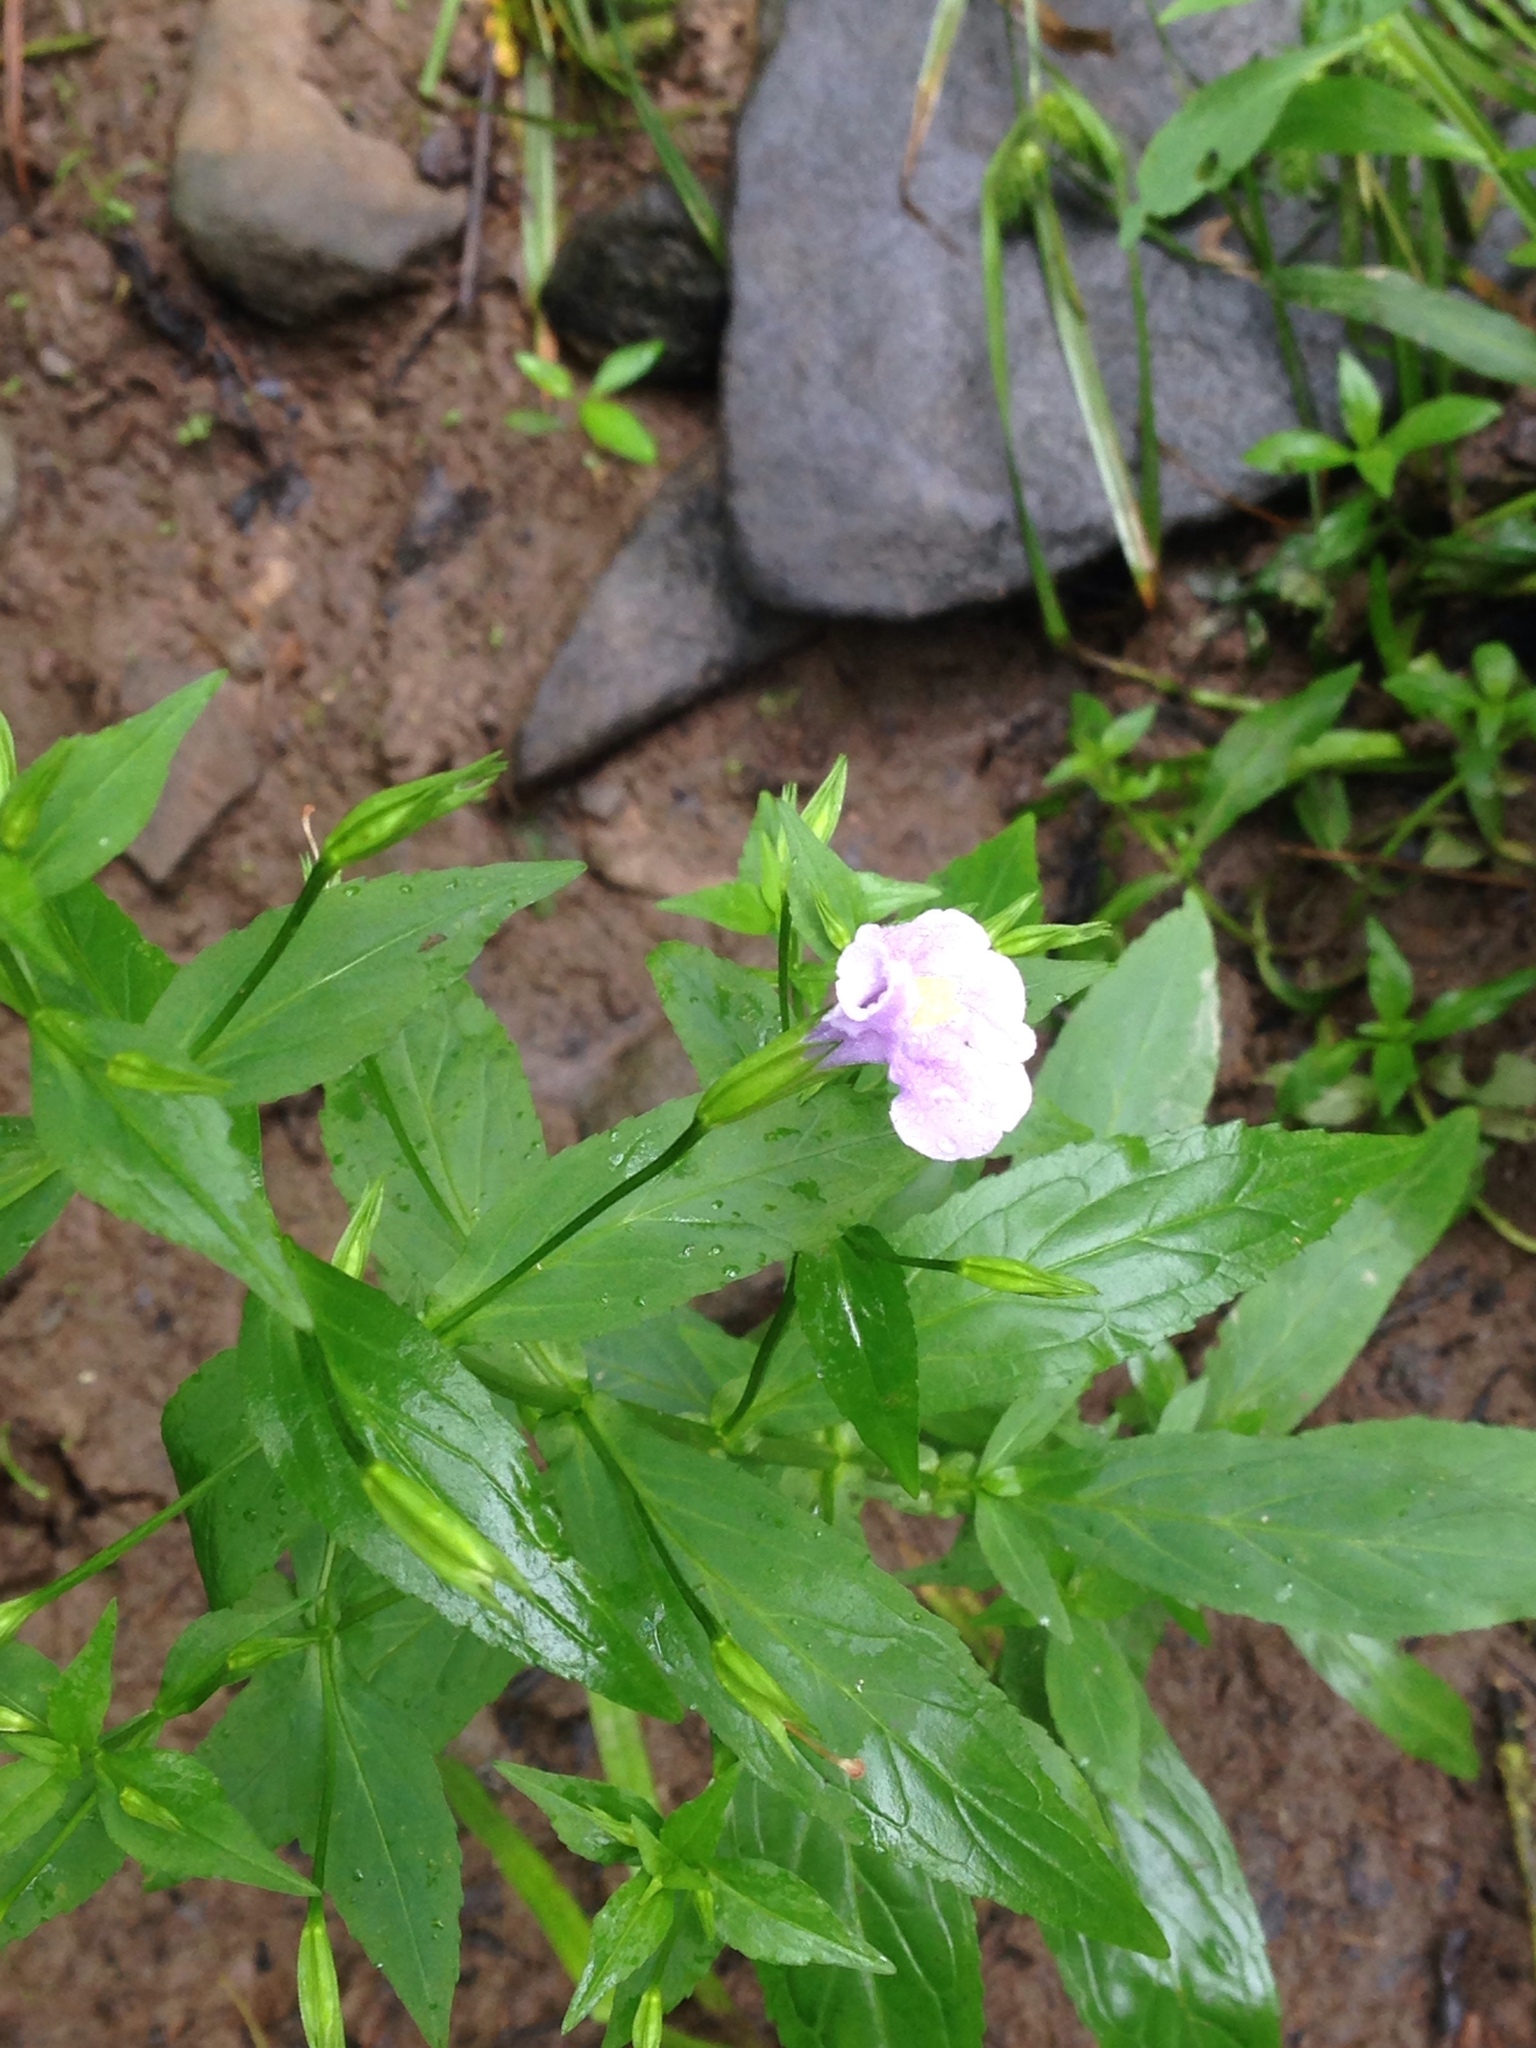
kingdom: Plantae
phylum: Tracheophyta
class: Magnoliopsida
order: Lamiales
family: Phrymaceae
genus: Mimulus
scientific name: Mimulus ringens
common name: Allegheny monkeyflower
